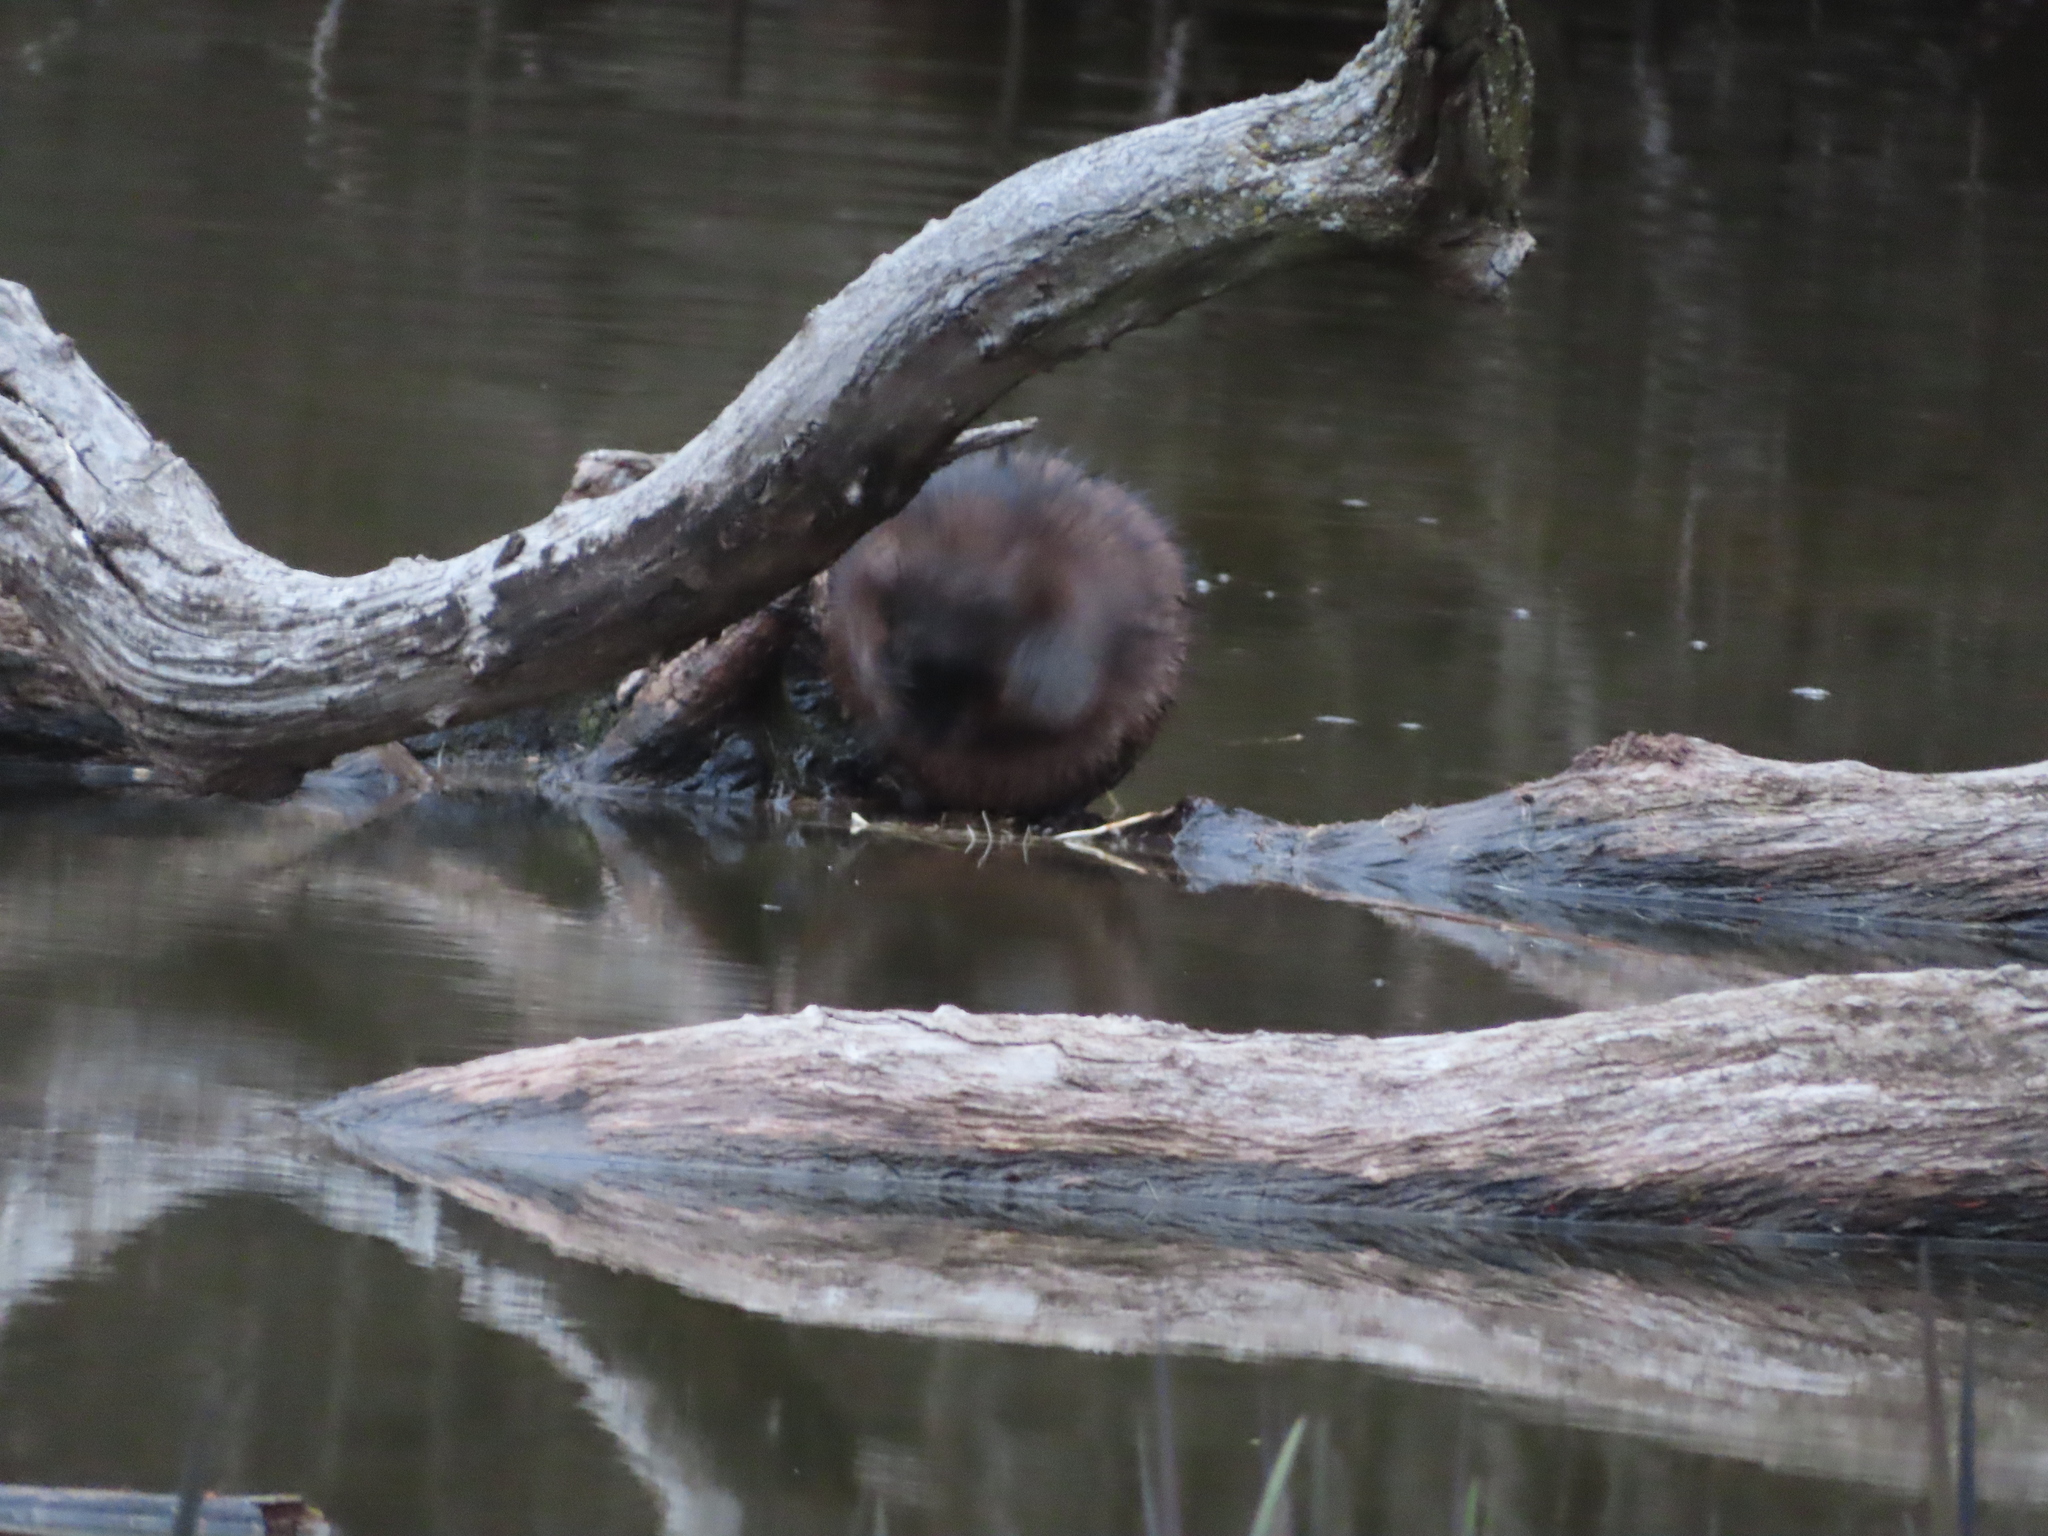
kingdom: Animalia
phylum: Chordata
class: Mammalia
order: Rodentia
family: Cricetidae
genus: Ondatra
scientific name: Ondatra zibethicus
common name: Muskrat
